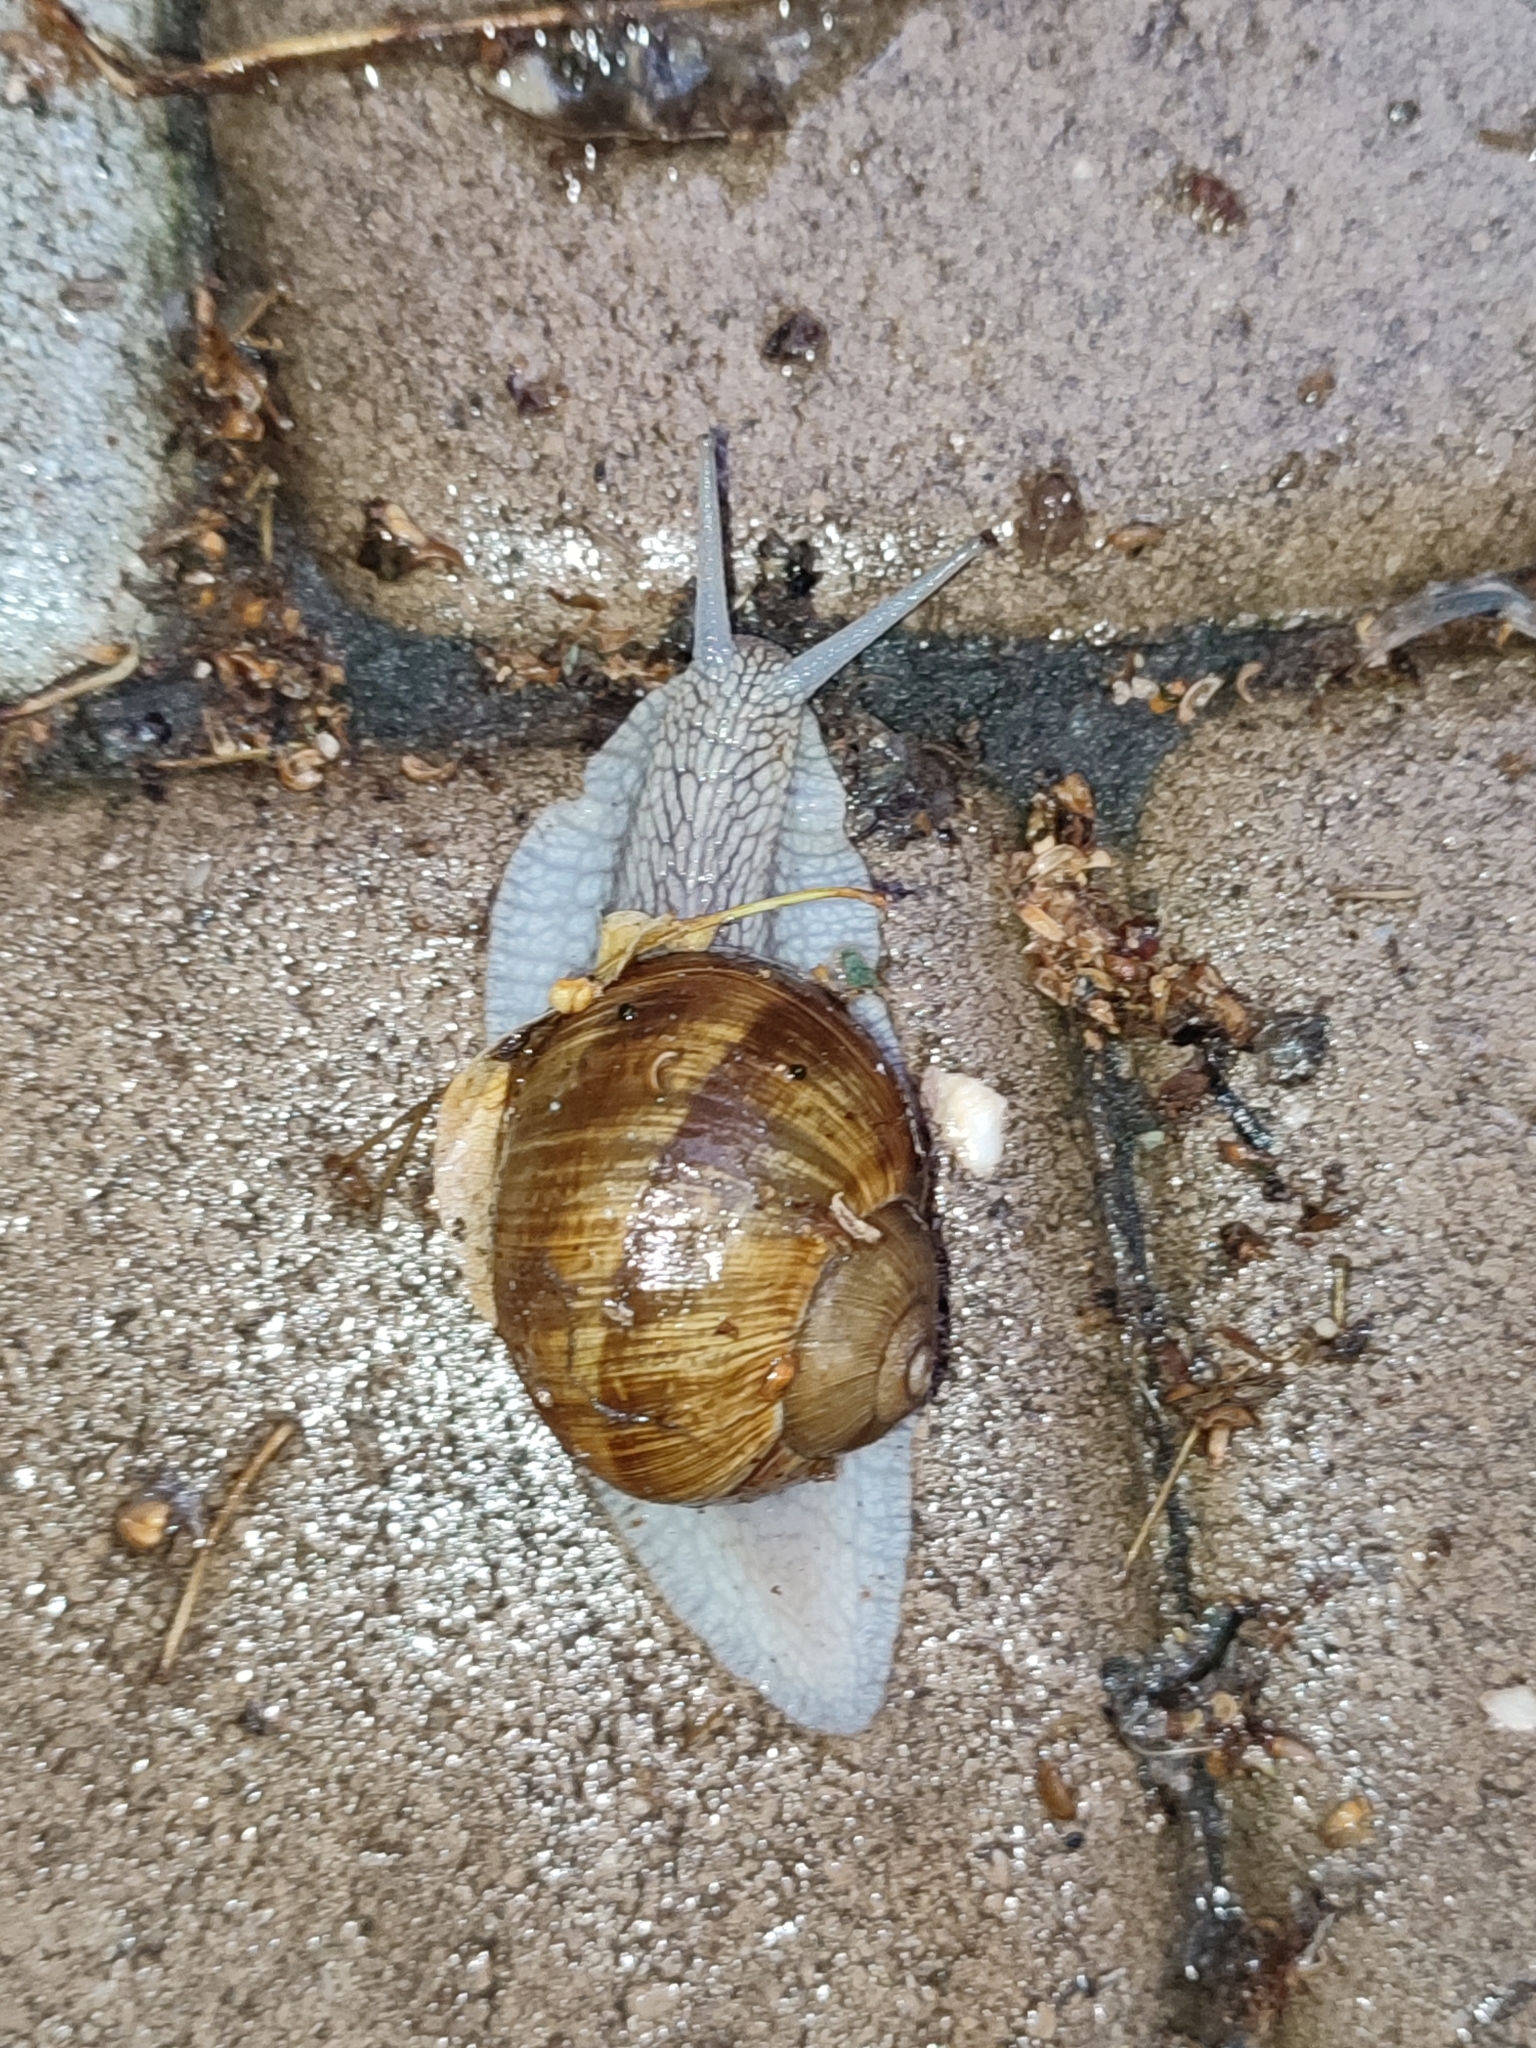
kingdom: Animalia
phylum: Mollusca
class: Gastropoda
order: Stylommatophora
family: Helicidae
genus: Helix
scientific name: Helix pomatia
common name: Roman snail
